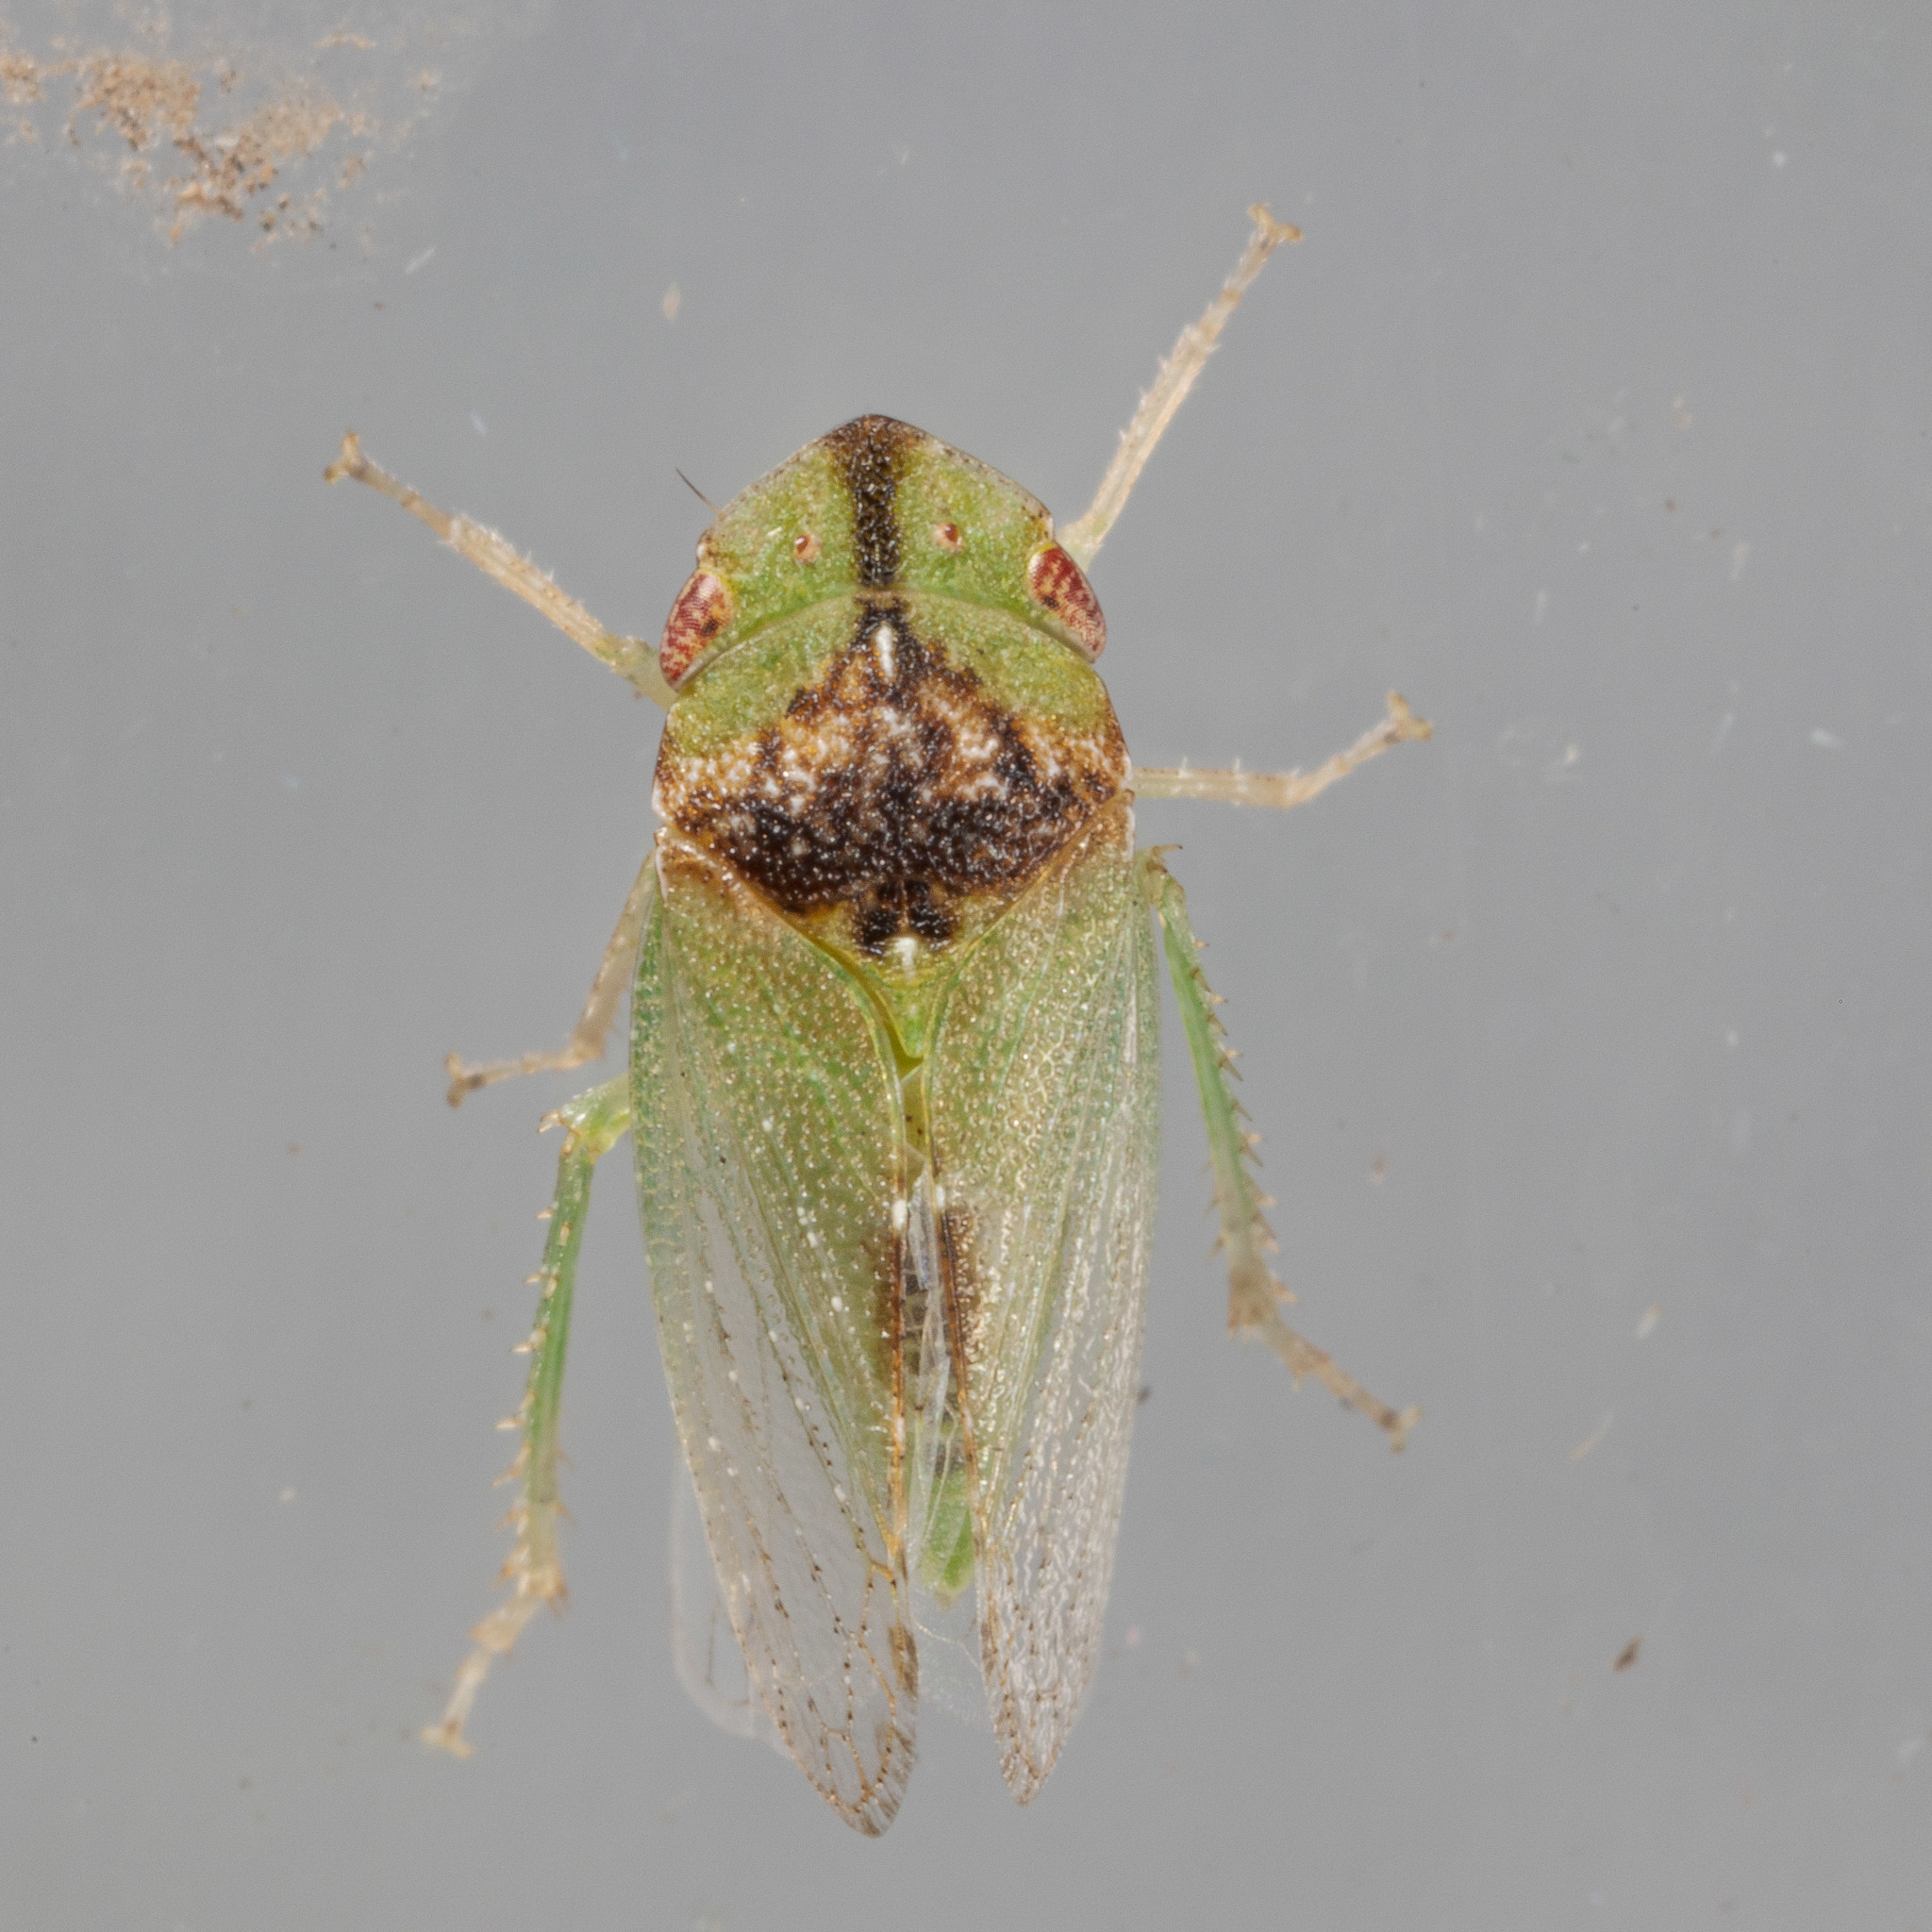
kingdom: Animalia
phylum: Arthropoda
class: Insecta
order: Hemiptera
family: Cicadellidae
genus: Xerophloea
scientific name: Xerophloea viridis
